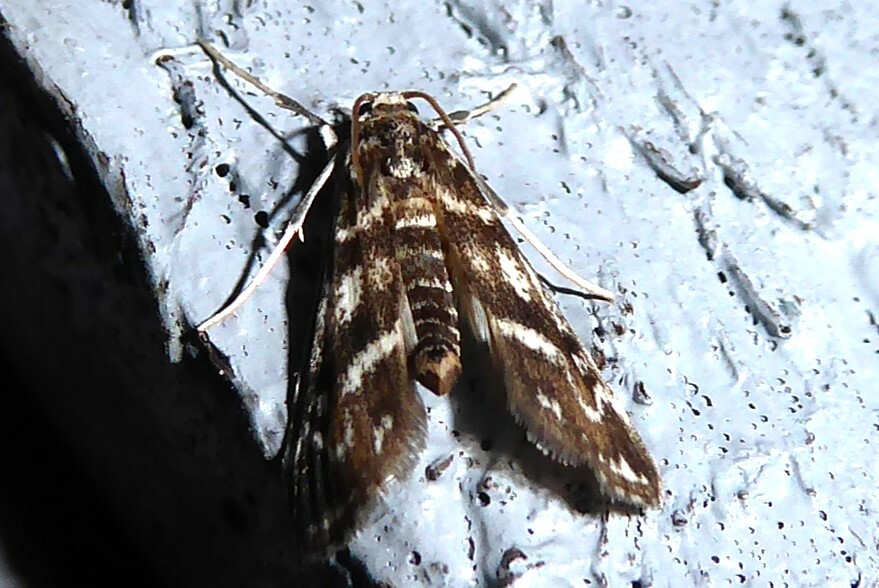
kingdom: Animalia
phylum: Arthropoda
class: Insecta
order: Lepidoptera
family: Crambidae
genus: Hygraula
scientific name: Hygraula nitens
